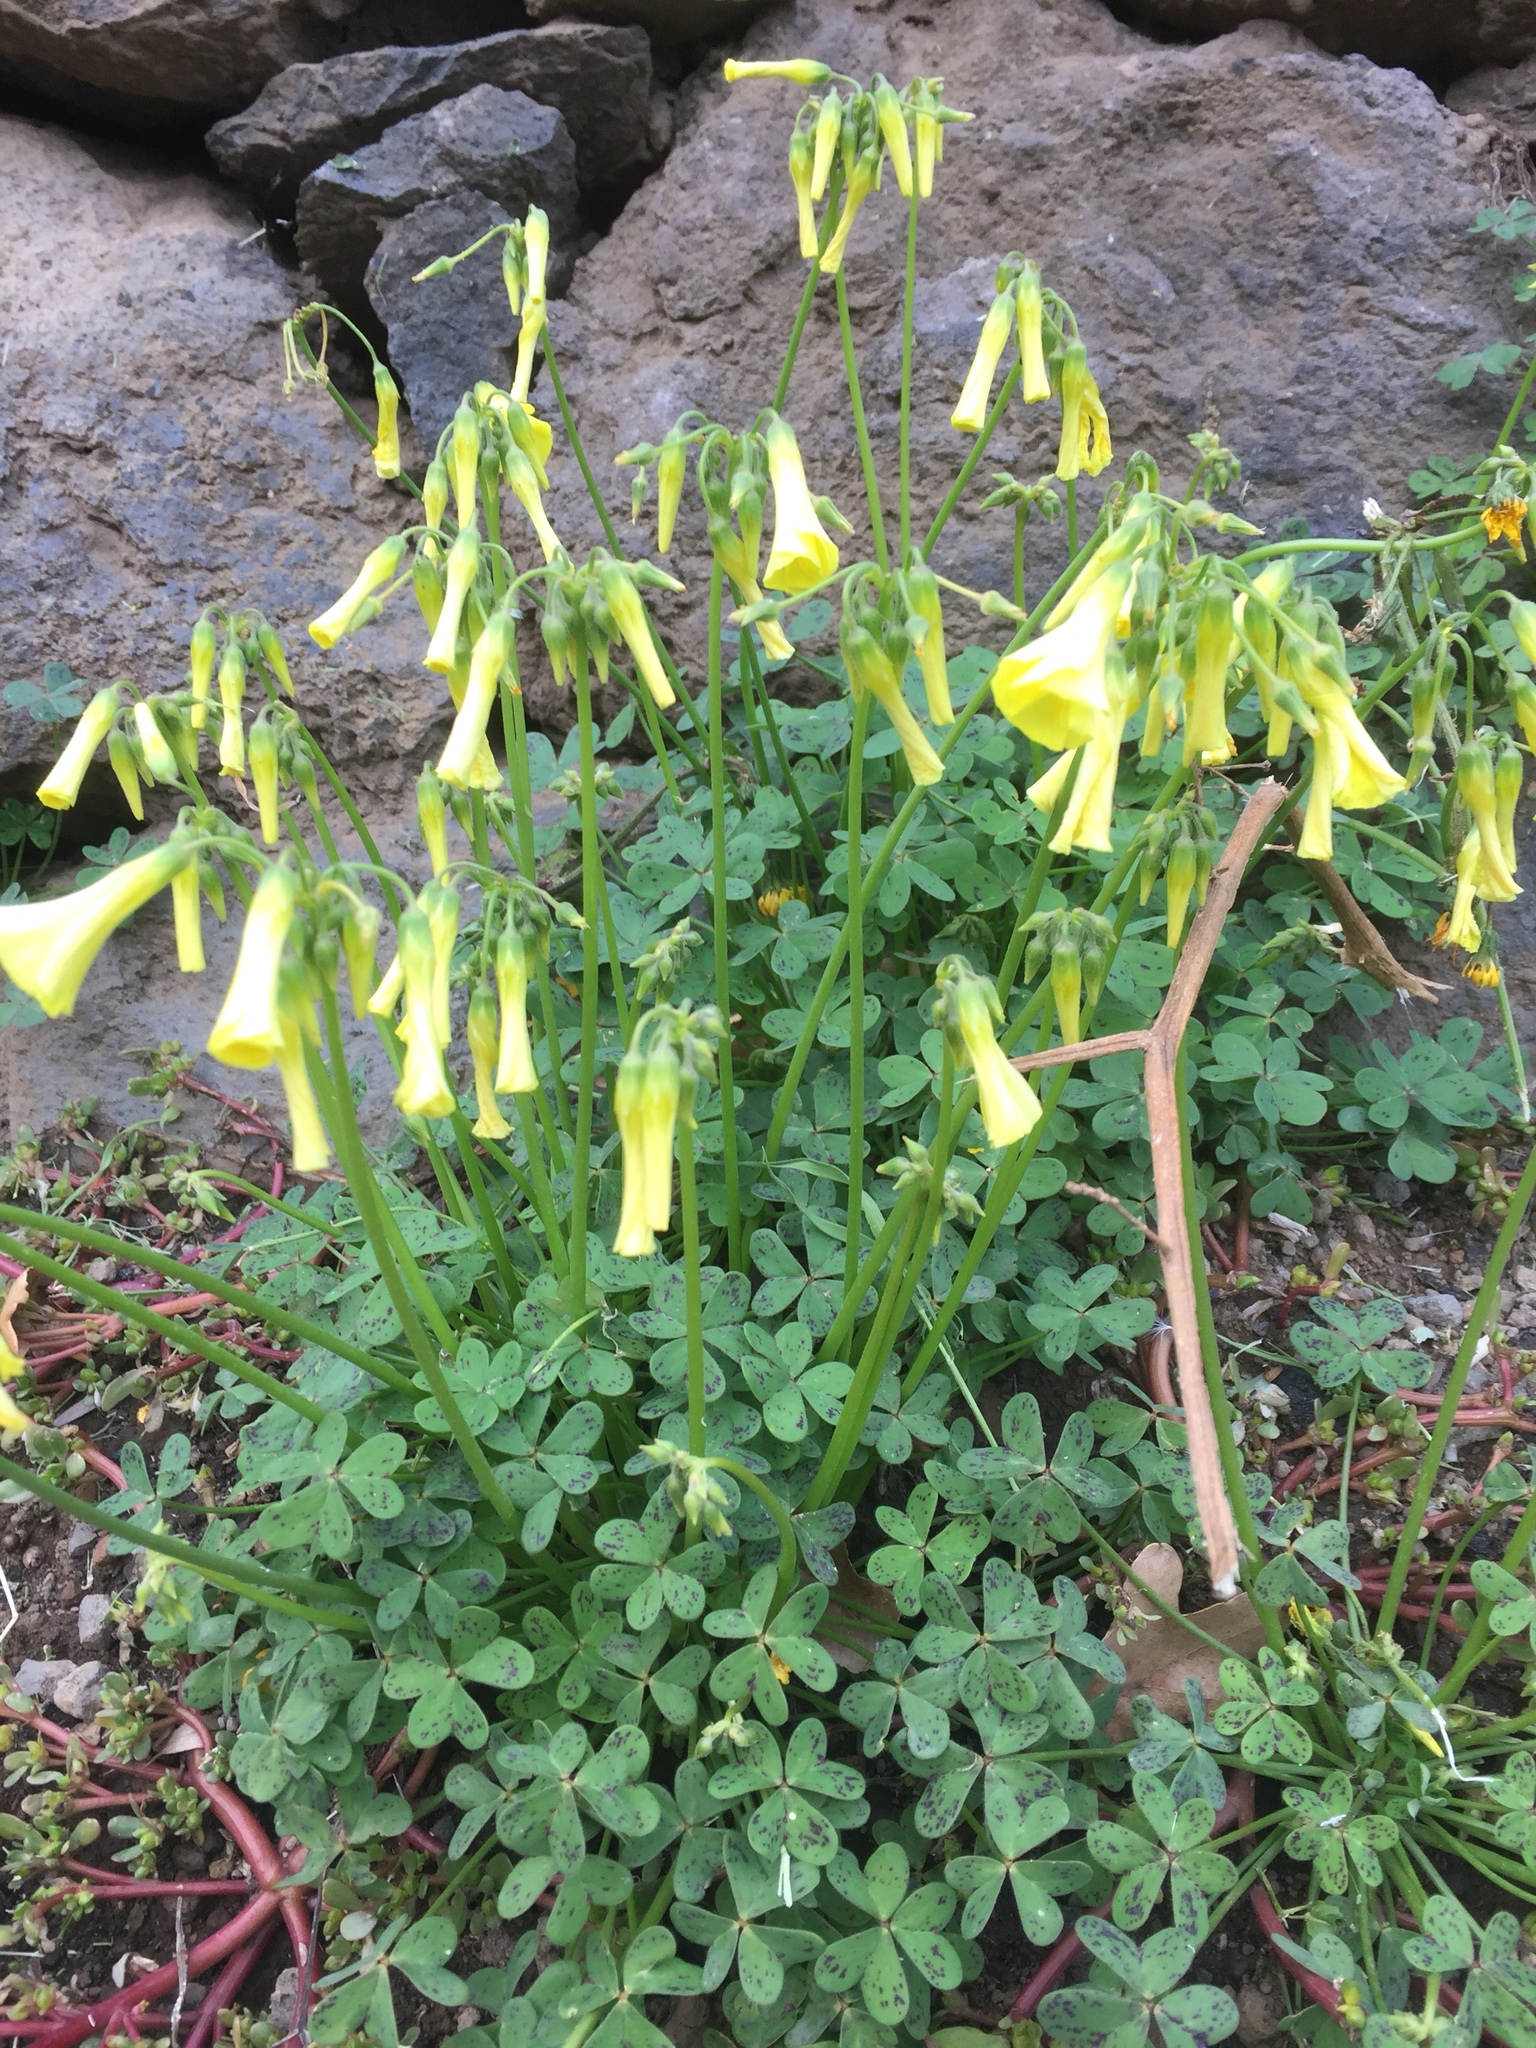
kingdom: Plantae
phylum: Tracheophyta
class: Magnoliopsida
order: Oxalidales
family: Oxalidaceae
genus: Oxalis
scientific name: Oxalis pes-caprae
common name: Bermuda-buttercup
